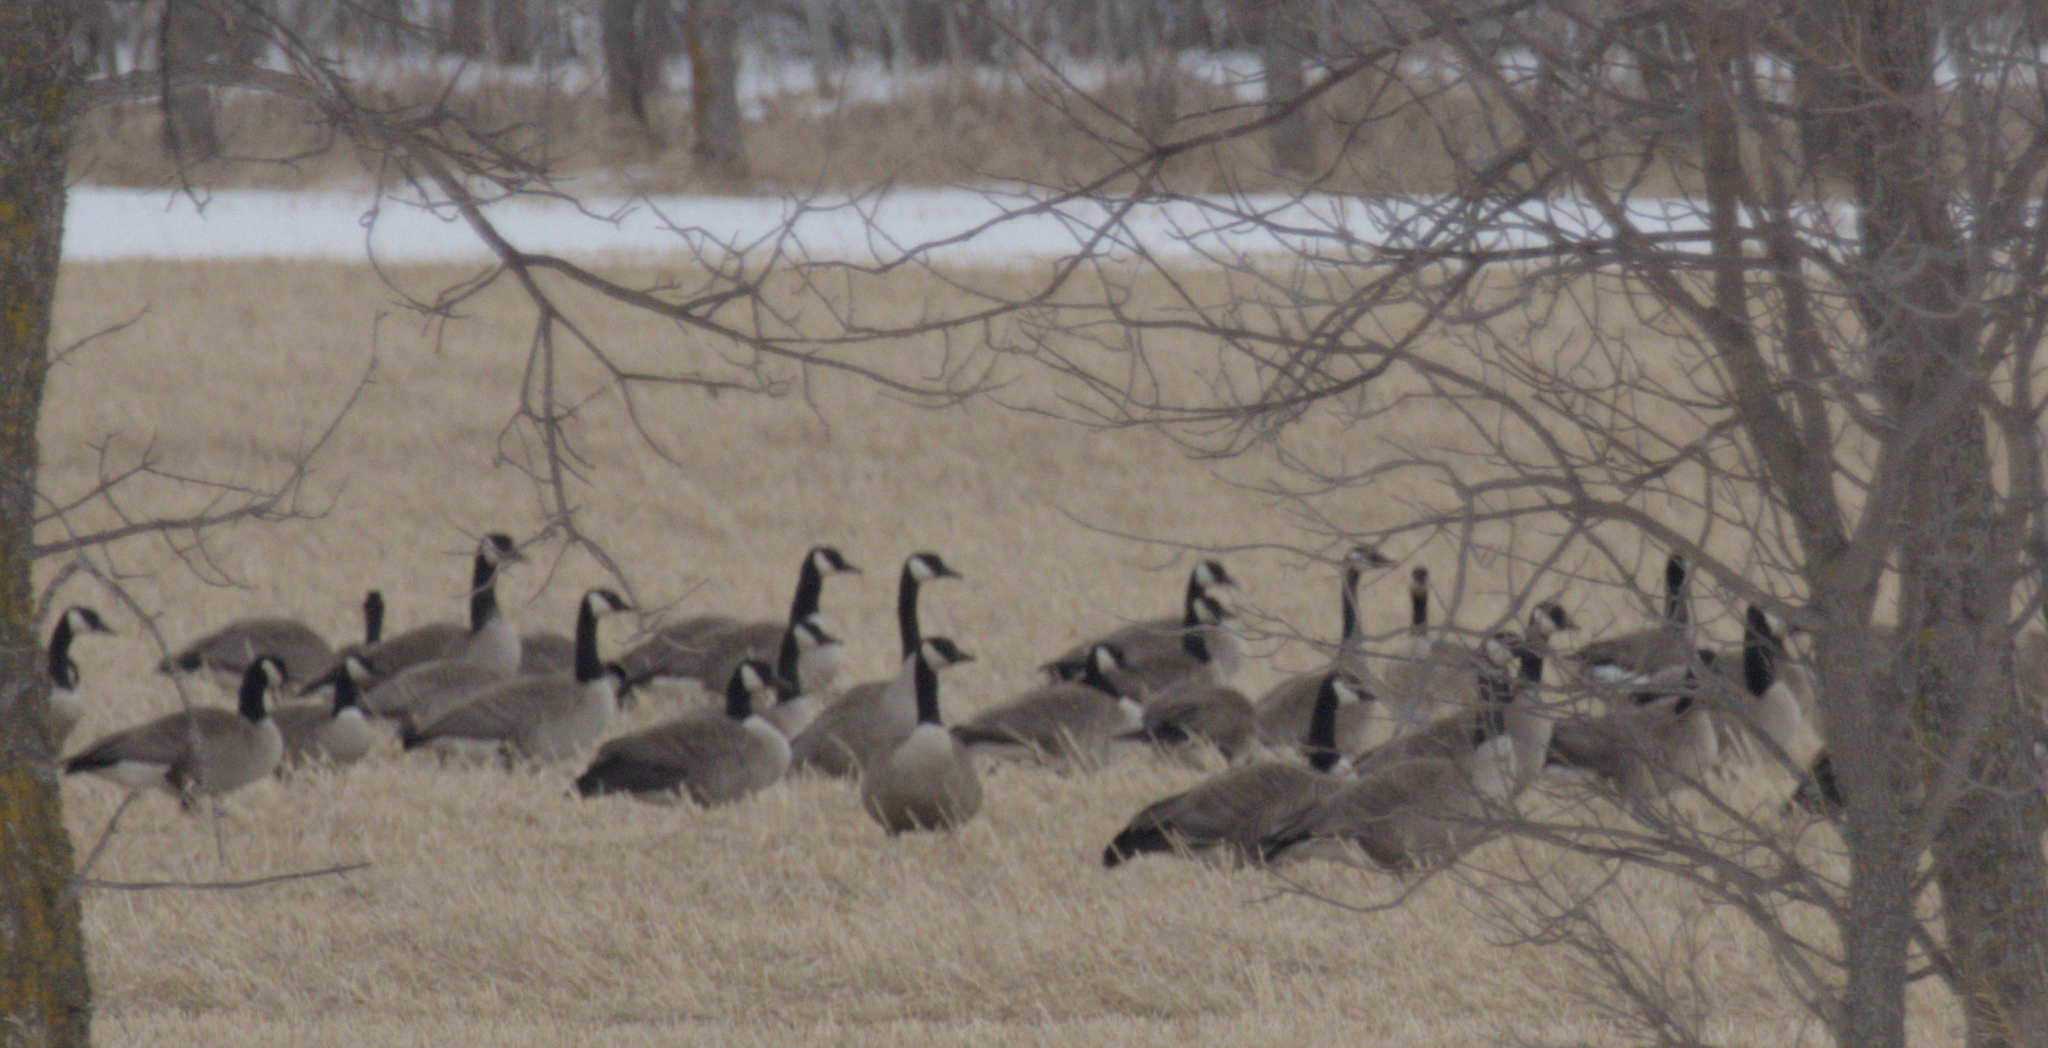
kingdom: Animalia
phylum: Chordata
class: Aves
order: Anseriformes
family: Anatidae
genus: Branta
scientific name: Branta canadensis
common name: Canada goose
